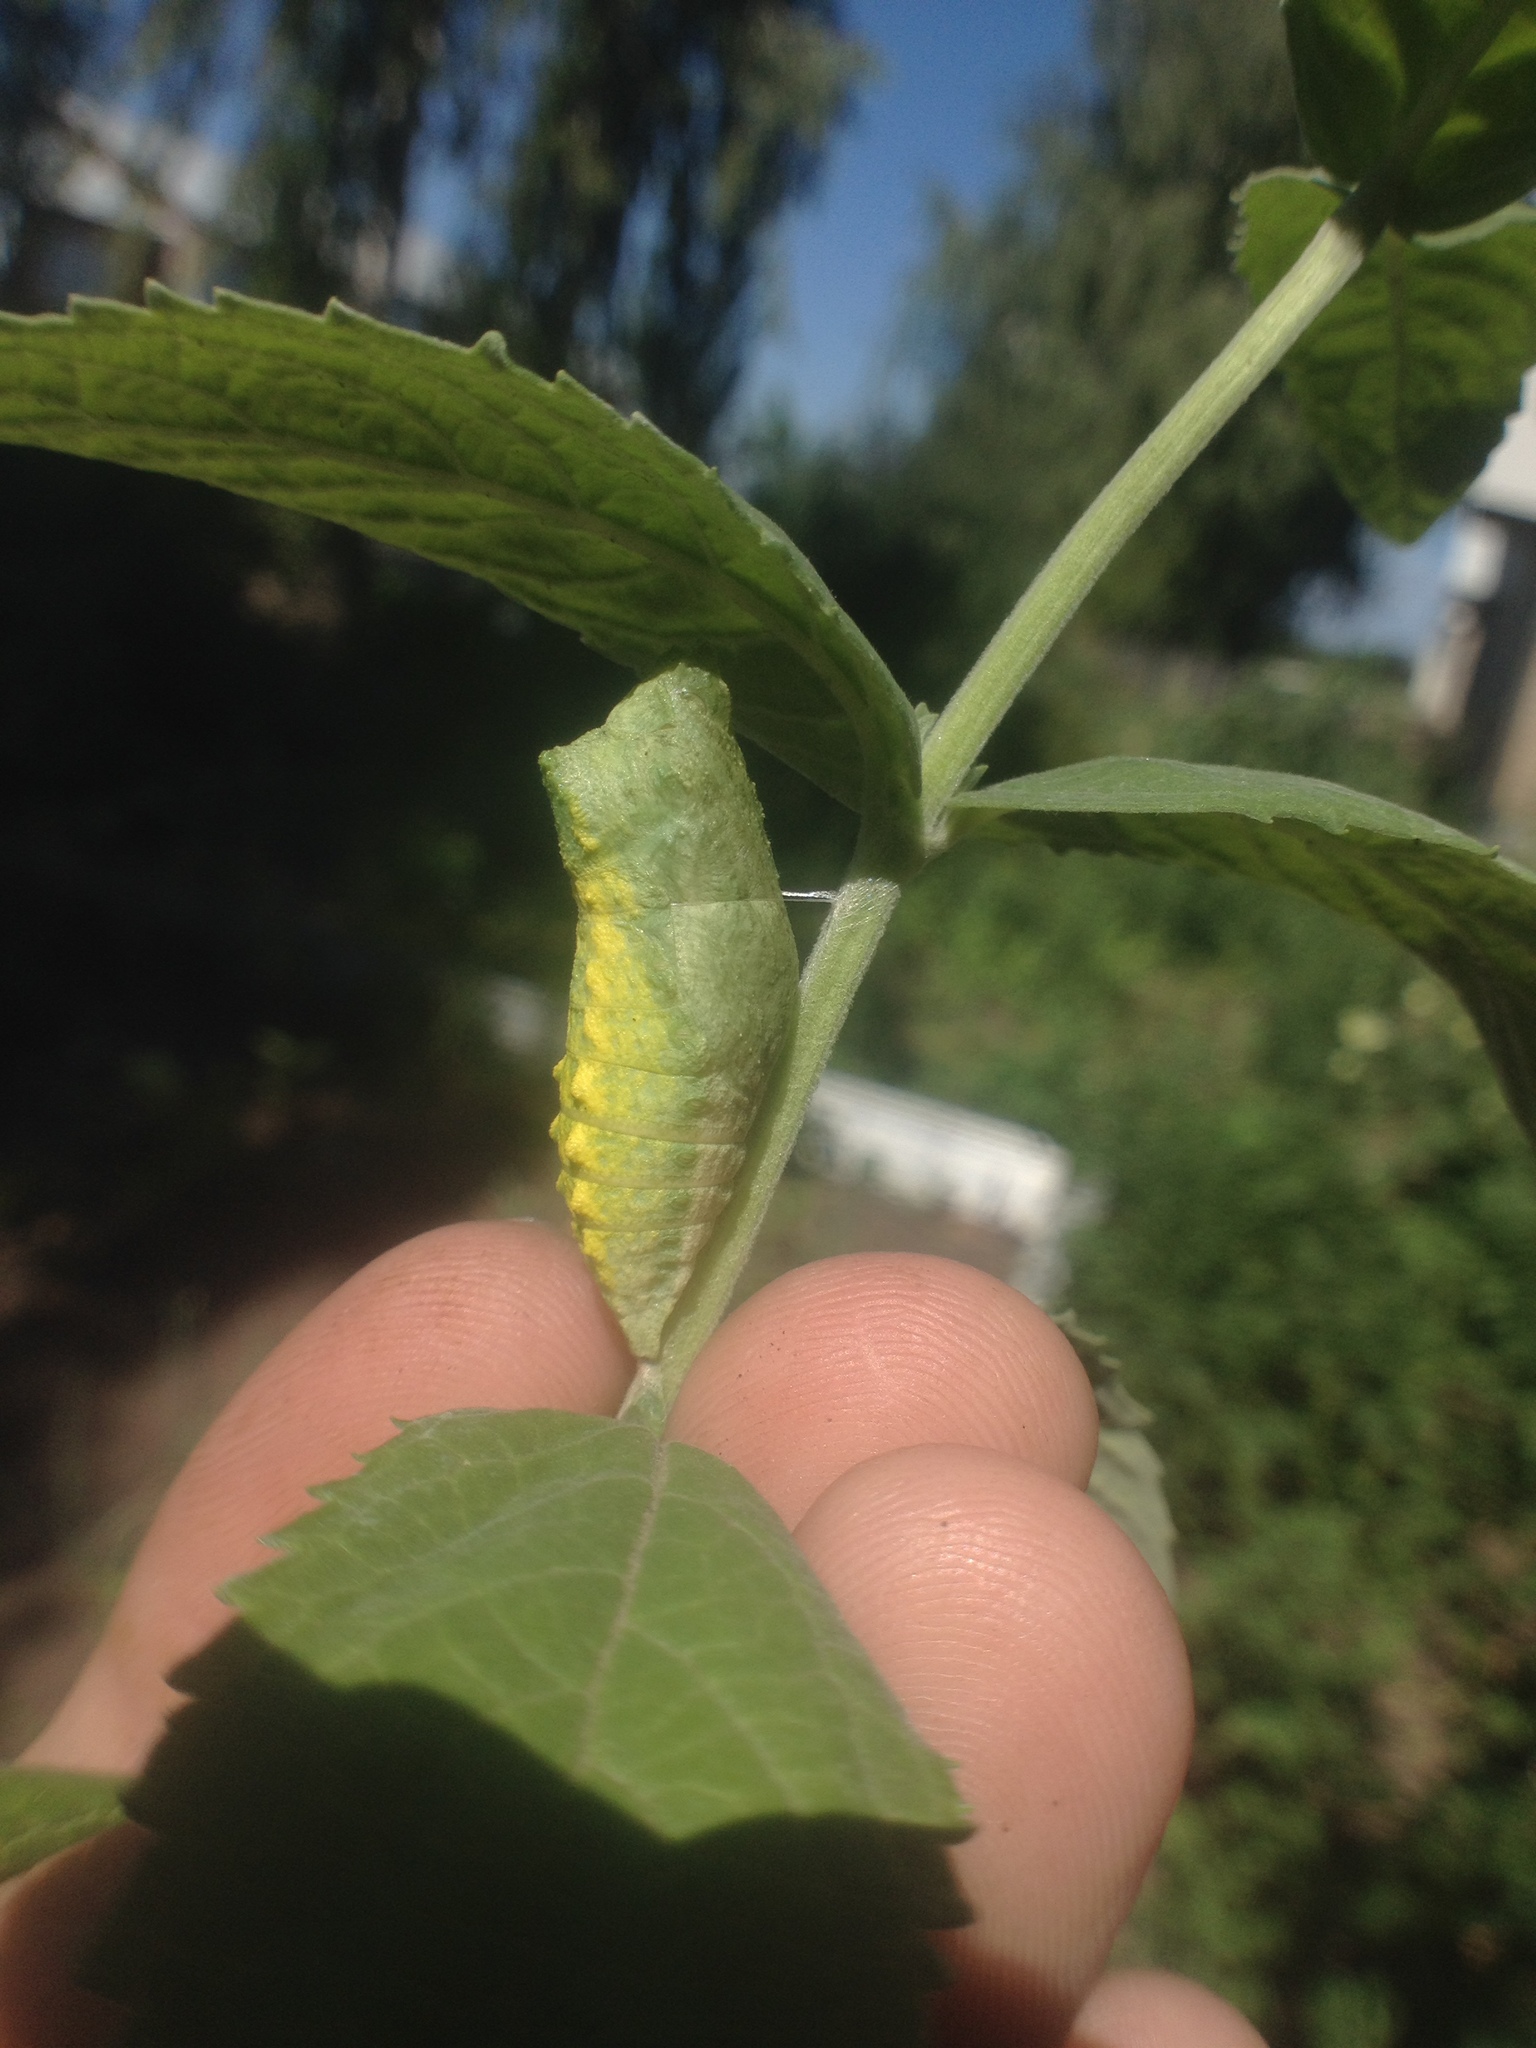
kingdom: Animalia
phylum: Arthropoda
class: Insecta
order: Lepidoptera
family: Papilionidae
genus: Papilio
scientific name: Papilio machaon
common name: Swallowtail
